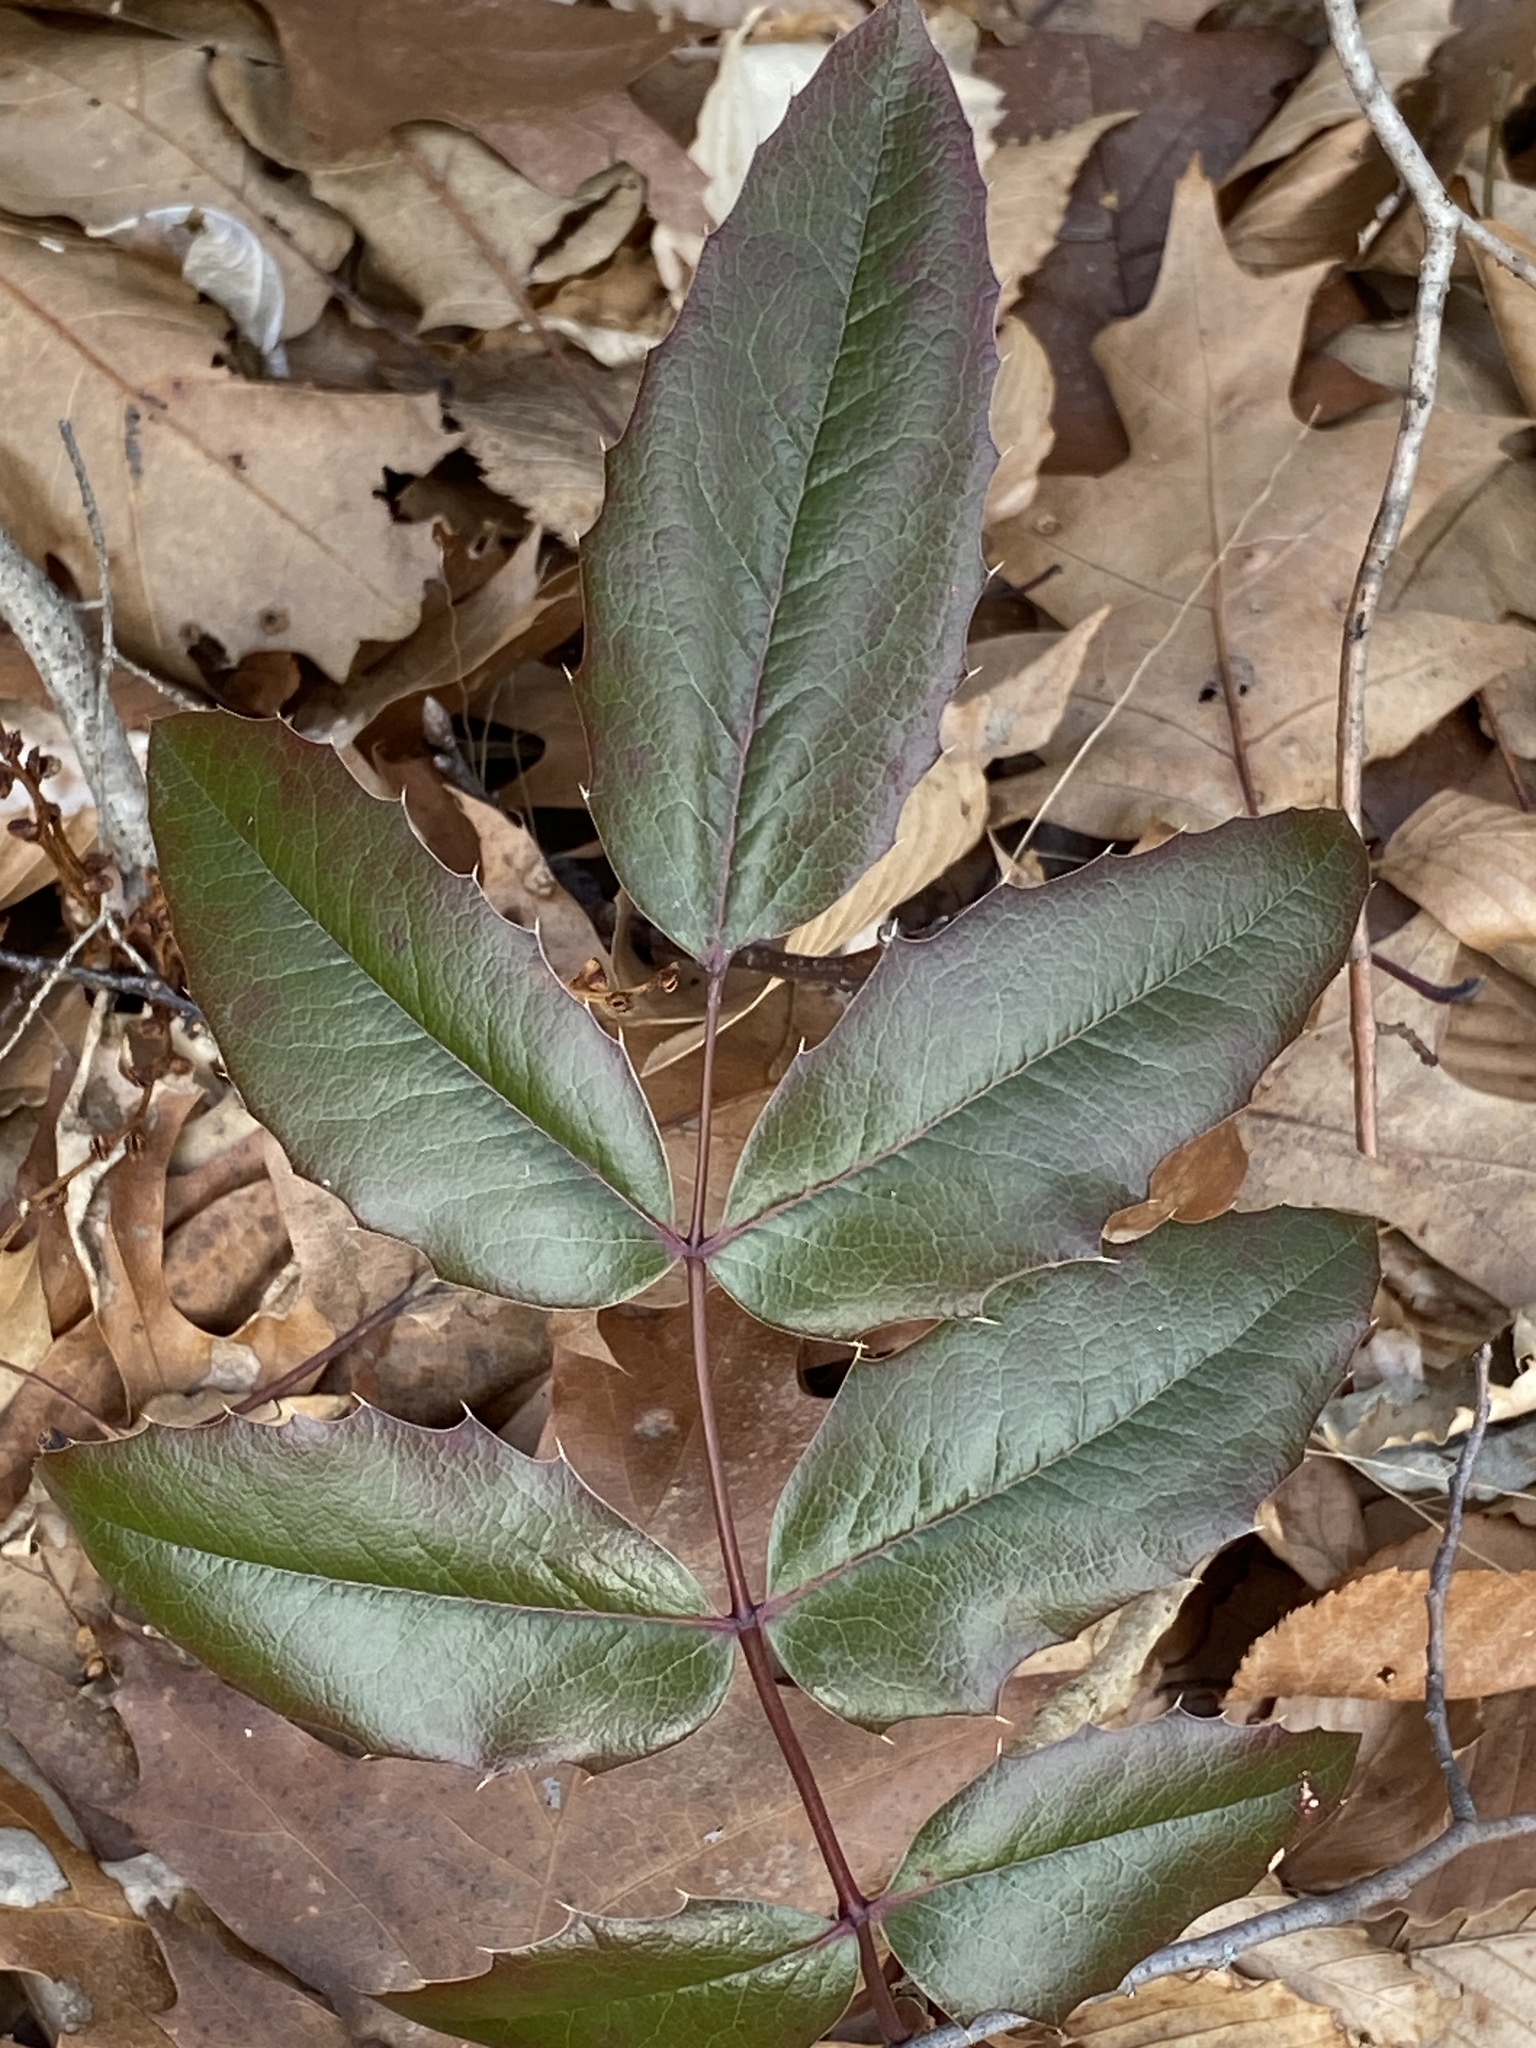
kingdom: Plantae
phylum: Tracheophyta
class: Magnoliopsida
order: Ranunculales
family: Berberidaceae
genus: Mahonia
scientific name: Mahonia aquifolium
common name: Oregon-grape
